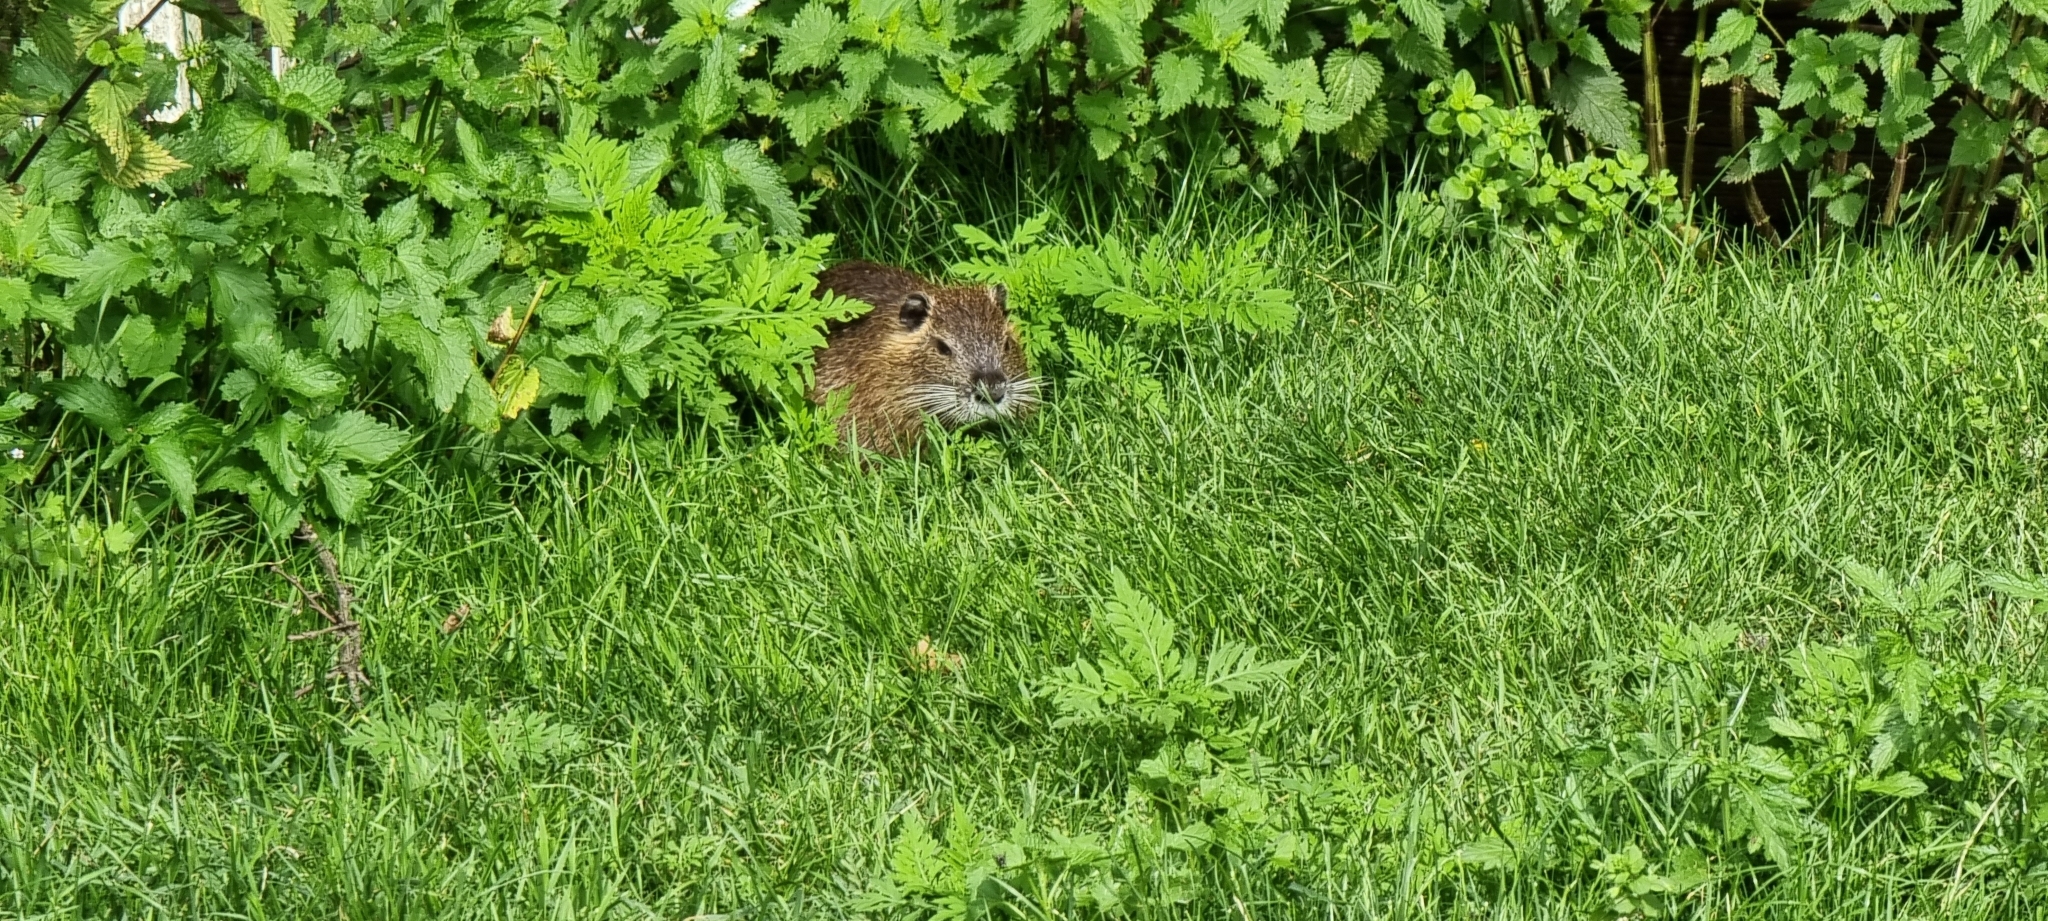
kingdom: Animalia
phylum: Chordata
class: Mammalia
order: Rodentia
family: Myocastoridae
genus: Myocastor
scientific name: Myocastor coypus
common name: Coypu
